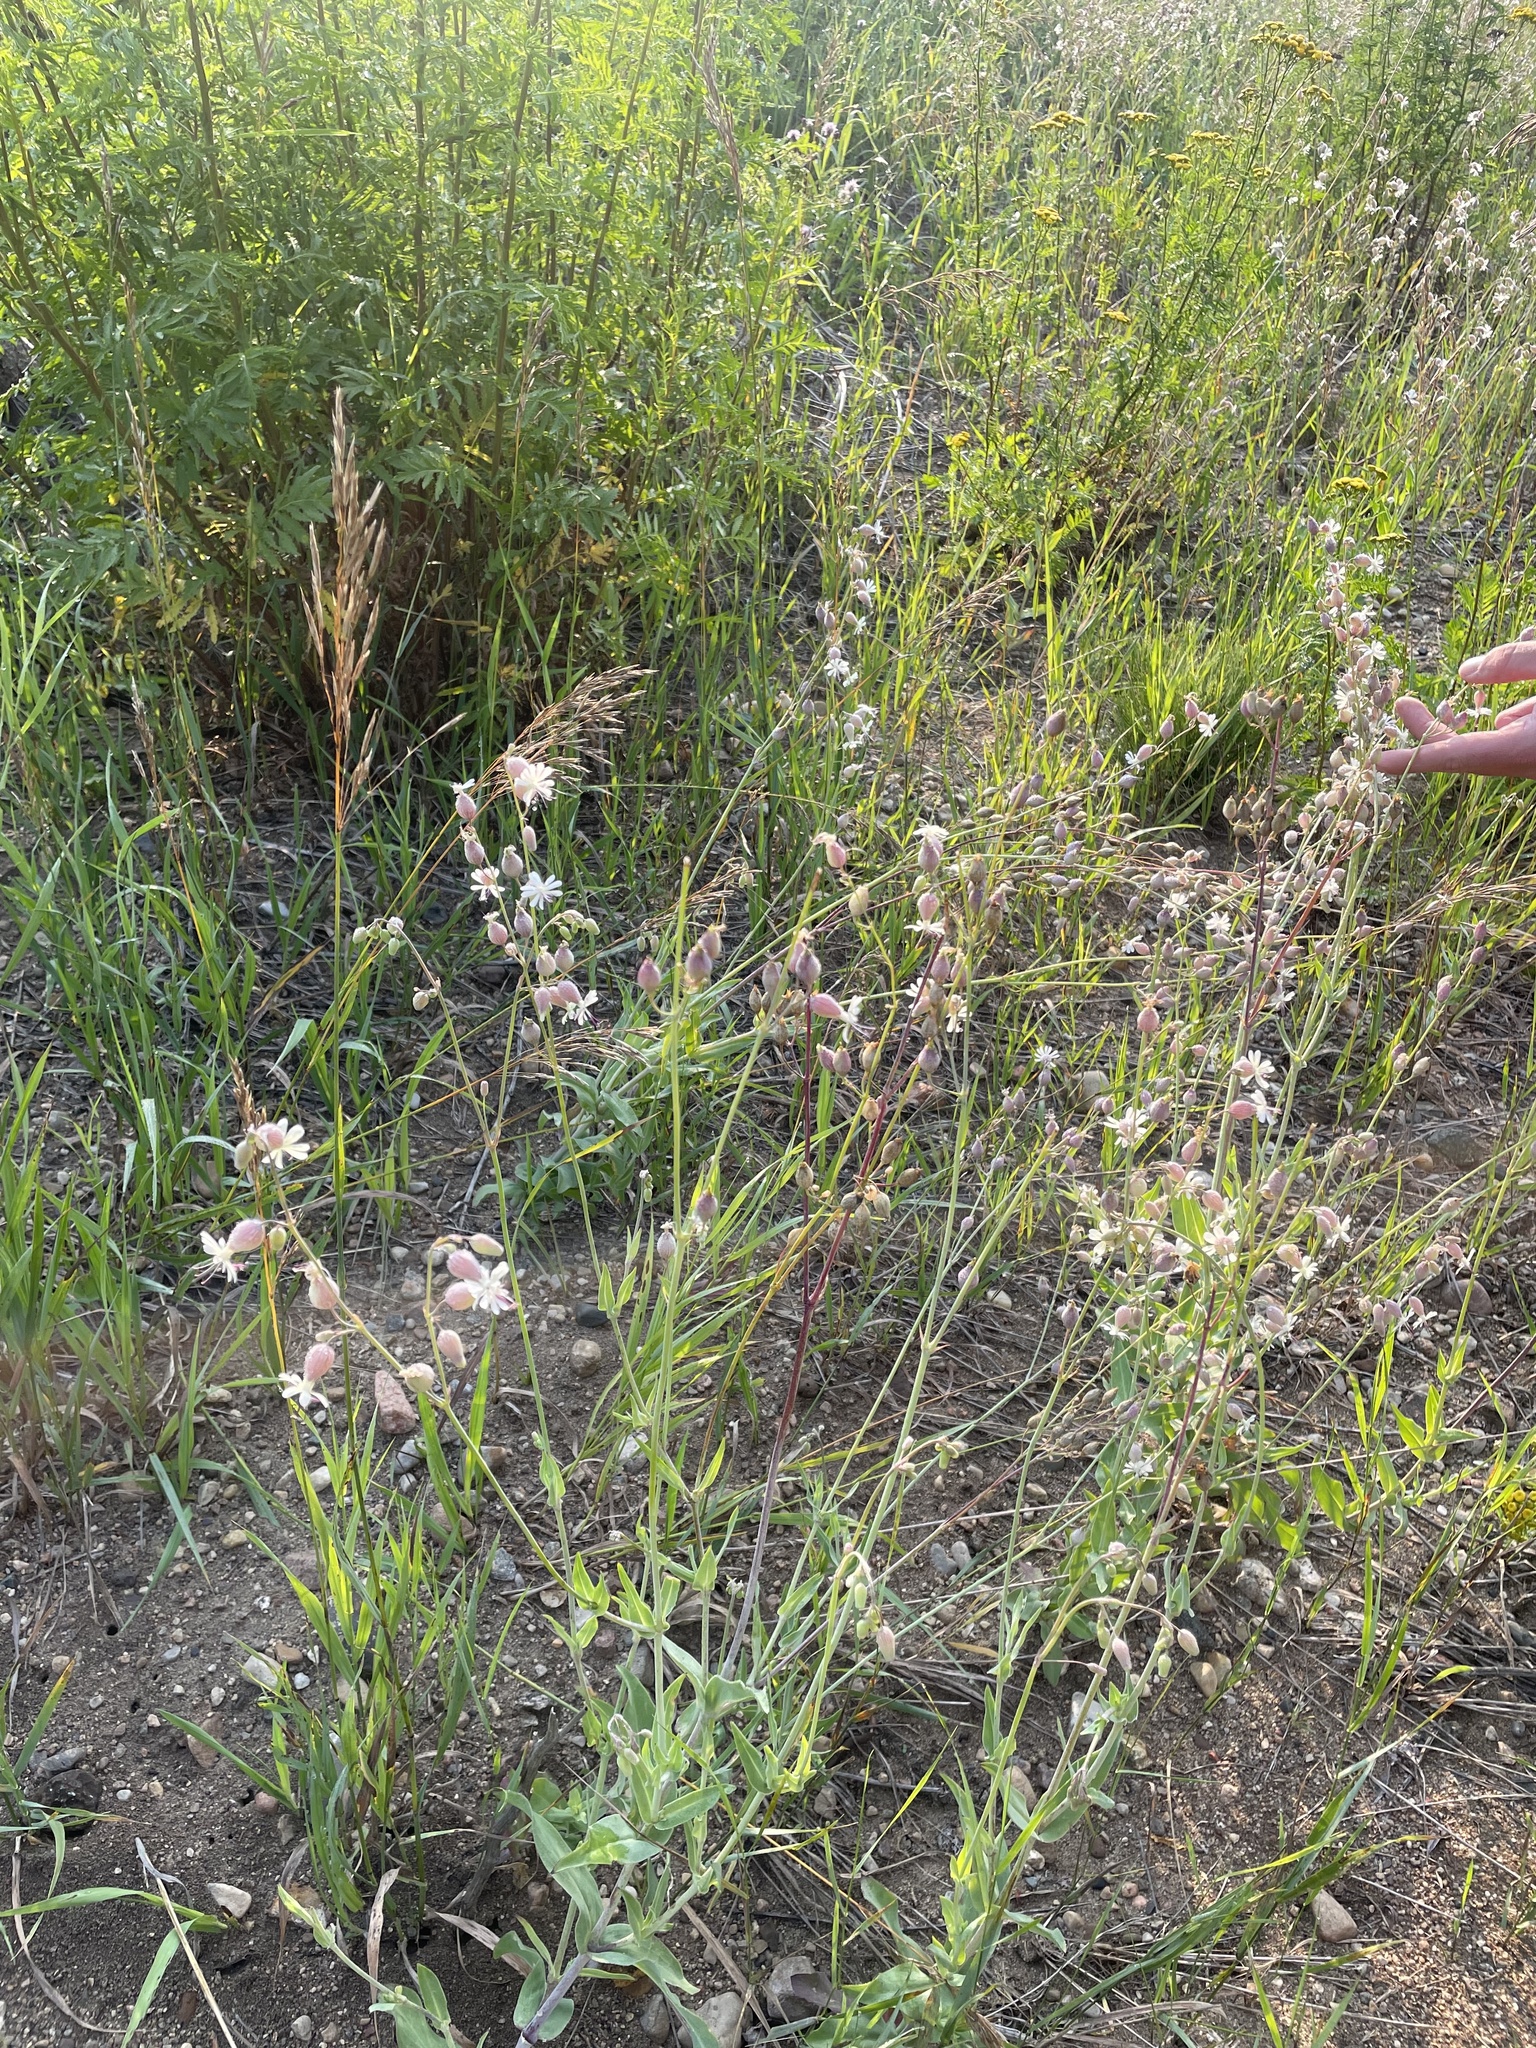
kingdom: Plantae
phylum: Tracheophyta
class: Magnoliopsida
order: Caryophyllales
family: Caryophyllaceae
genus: Silene
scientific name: Silene vulgaris
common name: Bladder campion
